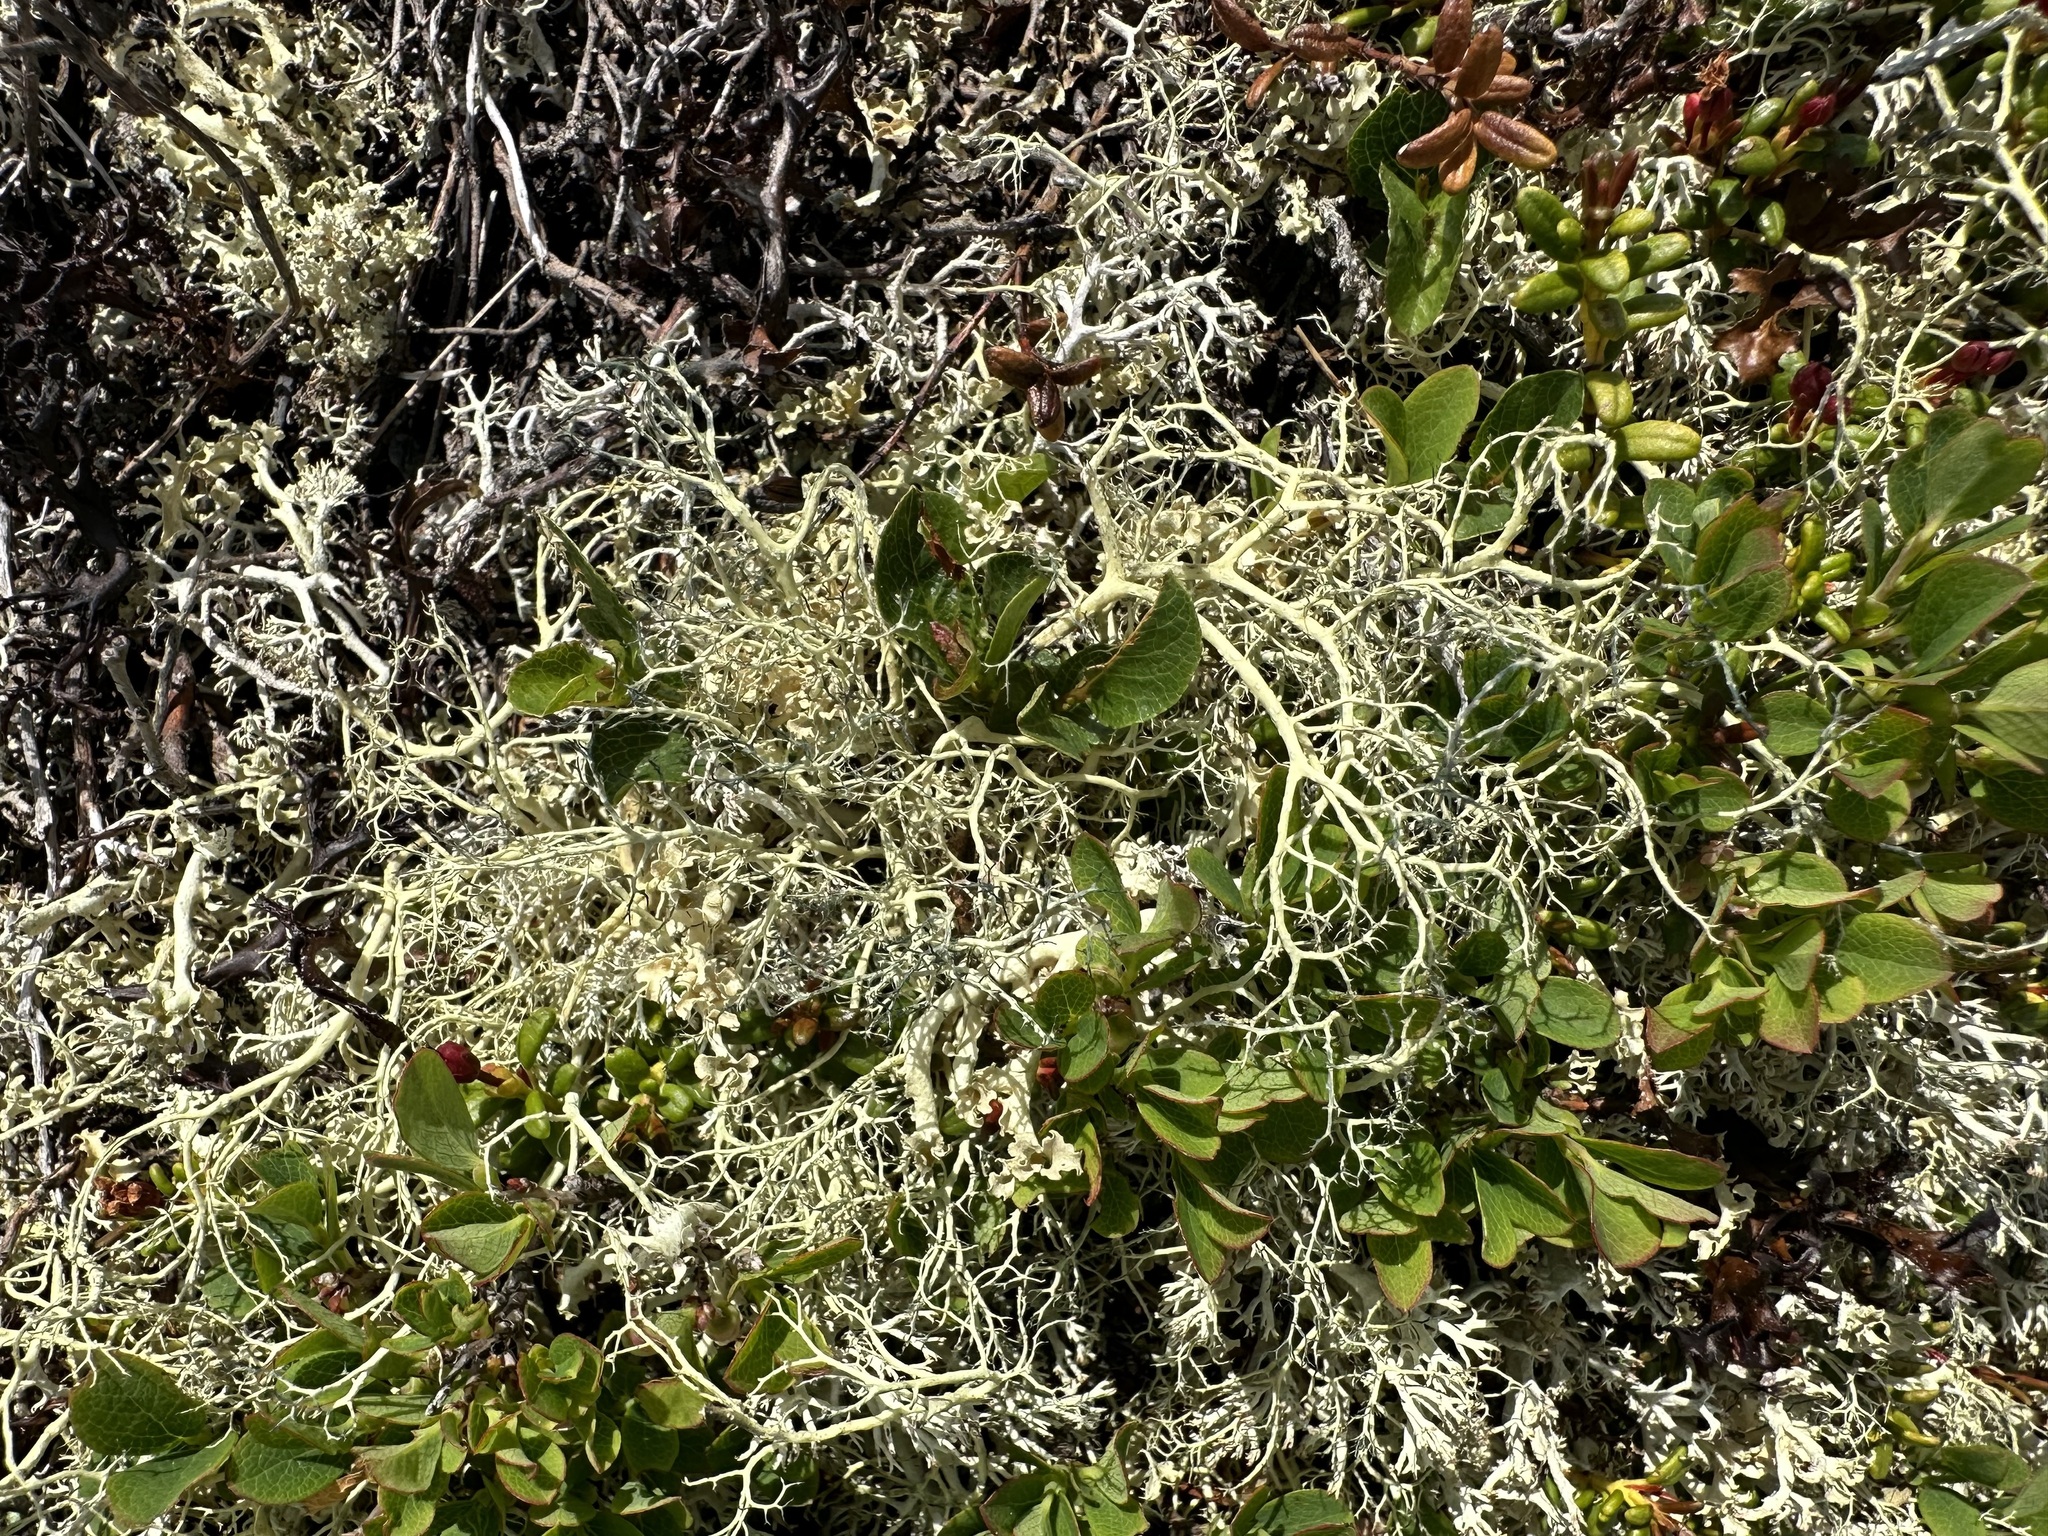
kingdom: Fungi
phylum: Ascomycota
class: Lecanoromycetes
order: Lecanorales
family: Parmeliaceae
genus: Alectoria
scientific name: Alectoria ochroleuca
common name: Alpine sulphur-tresses
